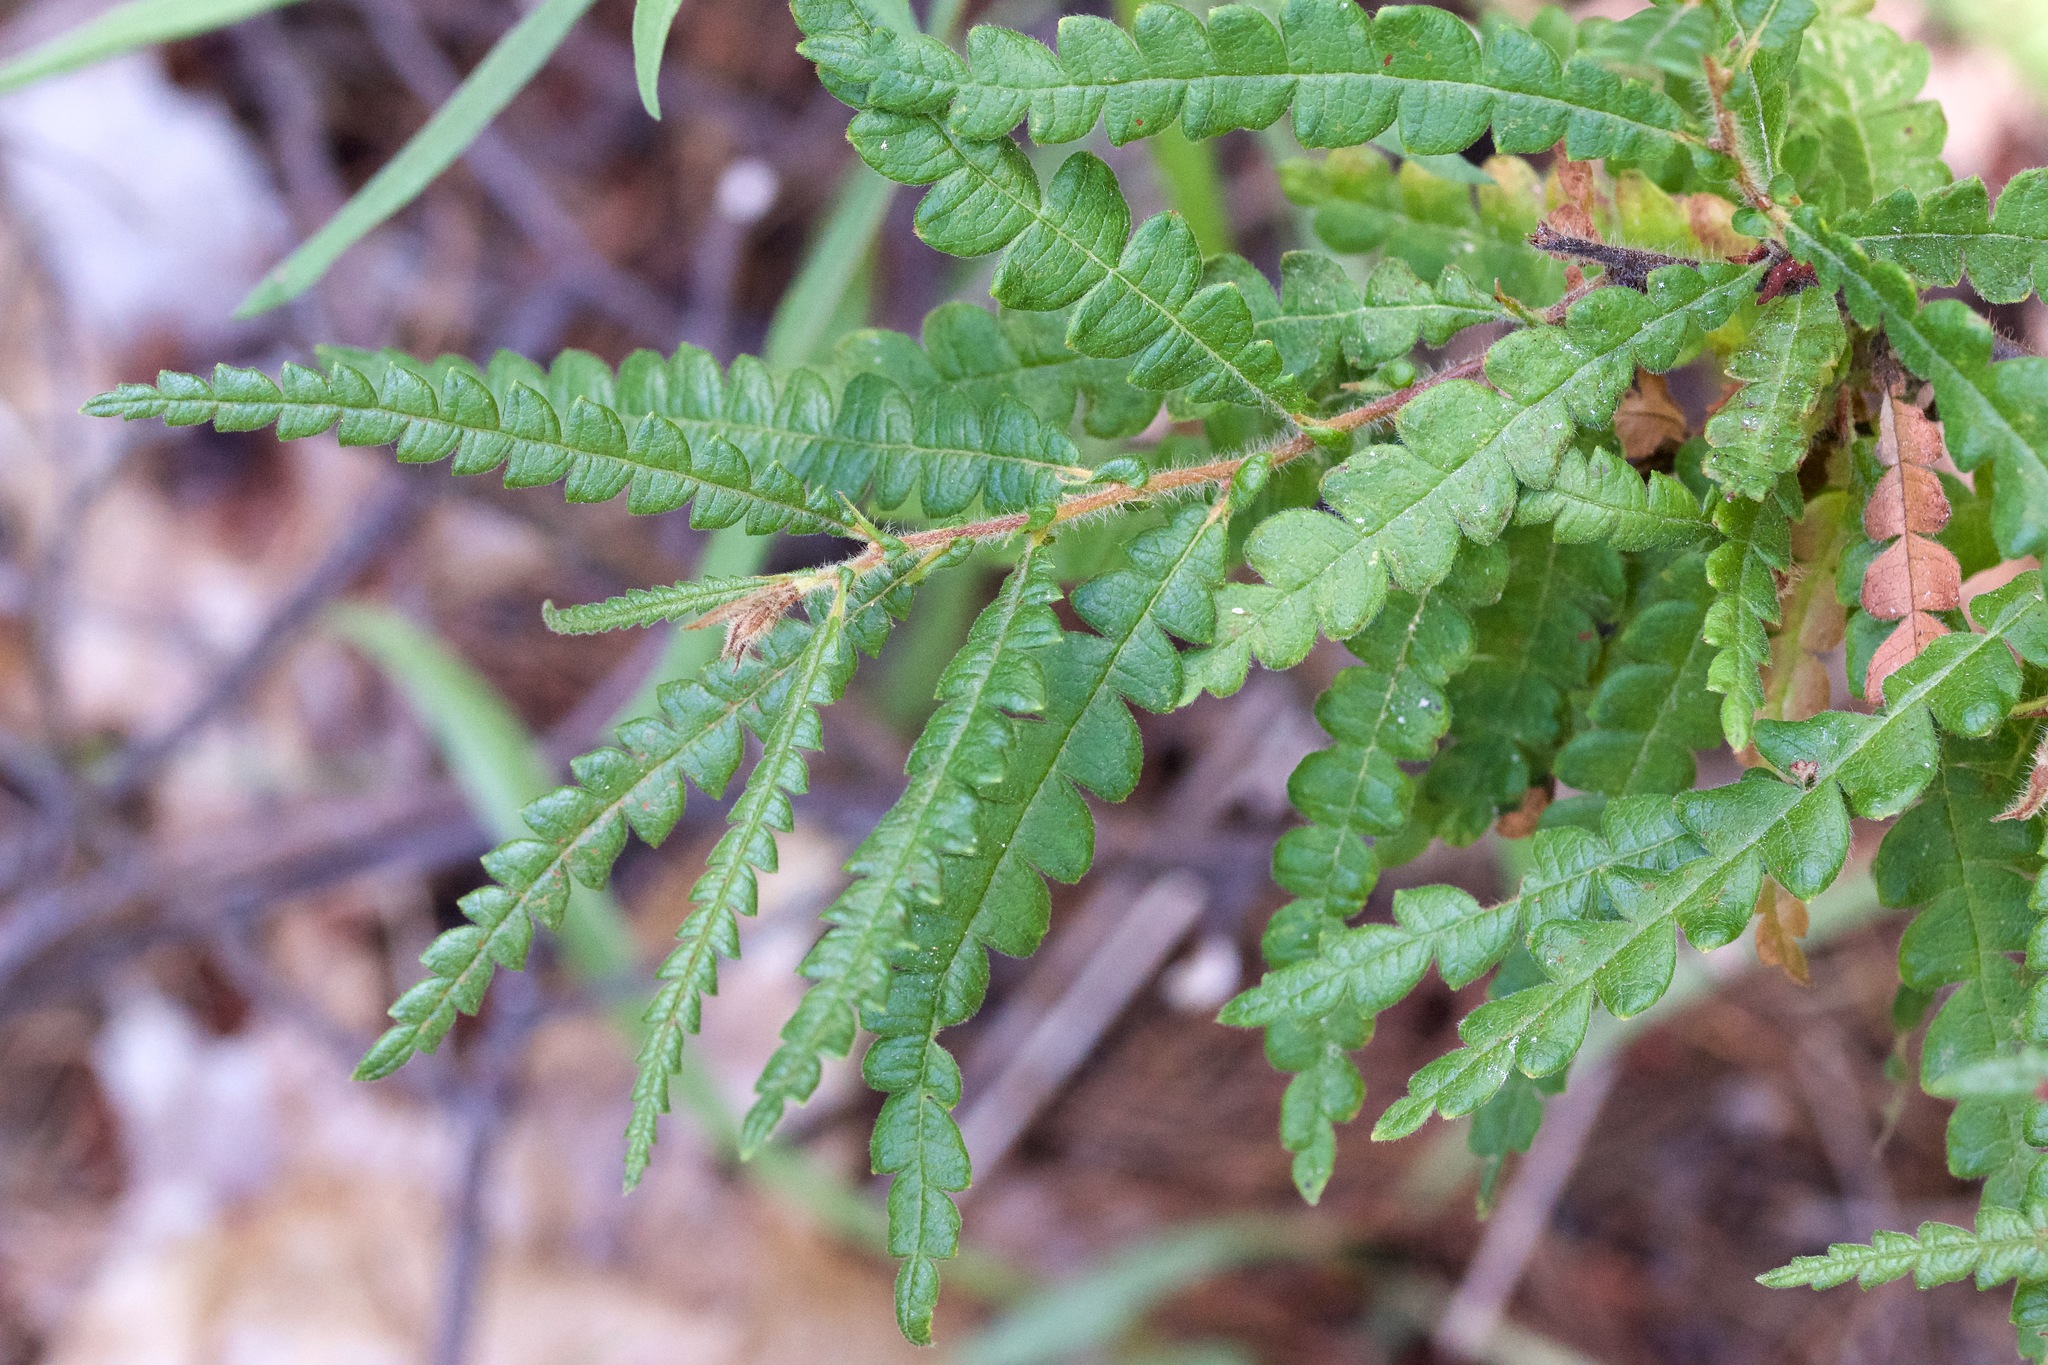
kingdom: Plantae
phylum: Tracheophyta
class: Magnoliopsida
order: Fagales
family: Myricaceae
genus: Comptonia
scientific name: Comptonia peregrina
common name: Sweet-fern
